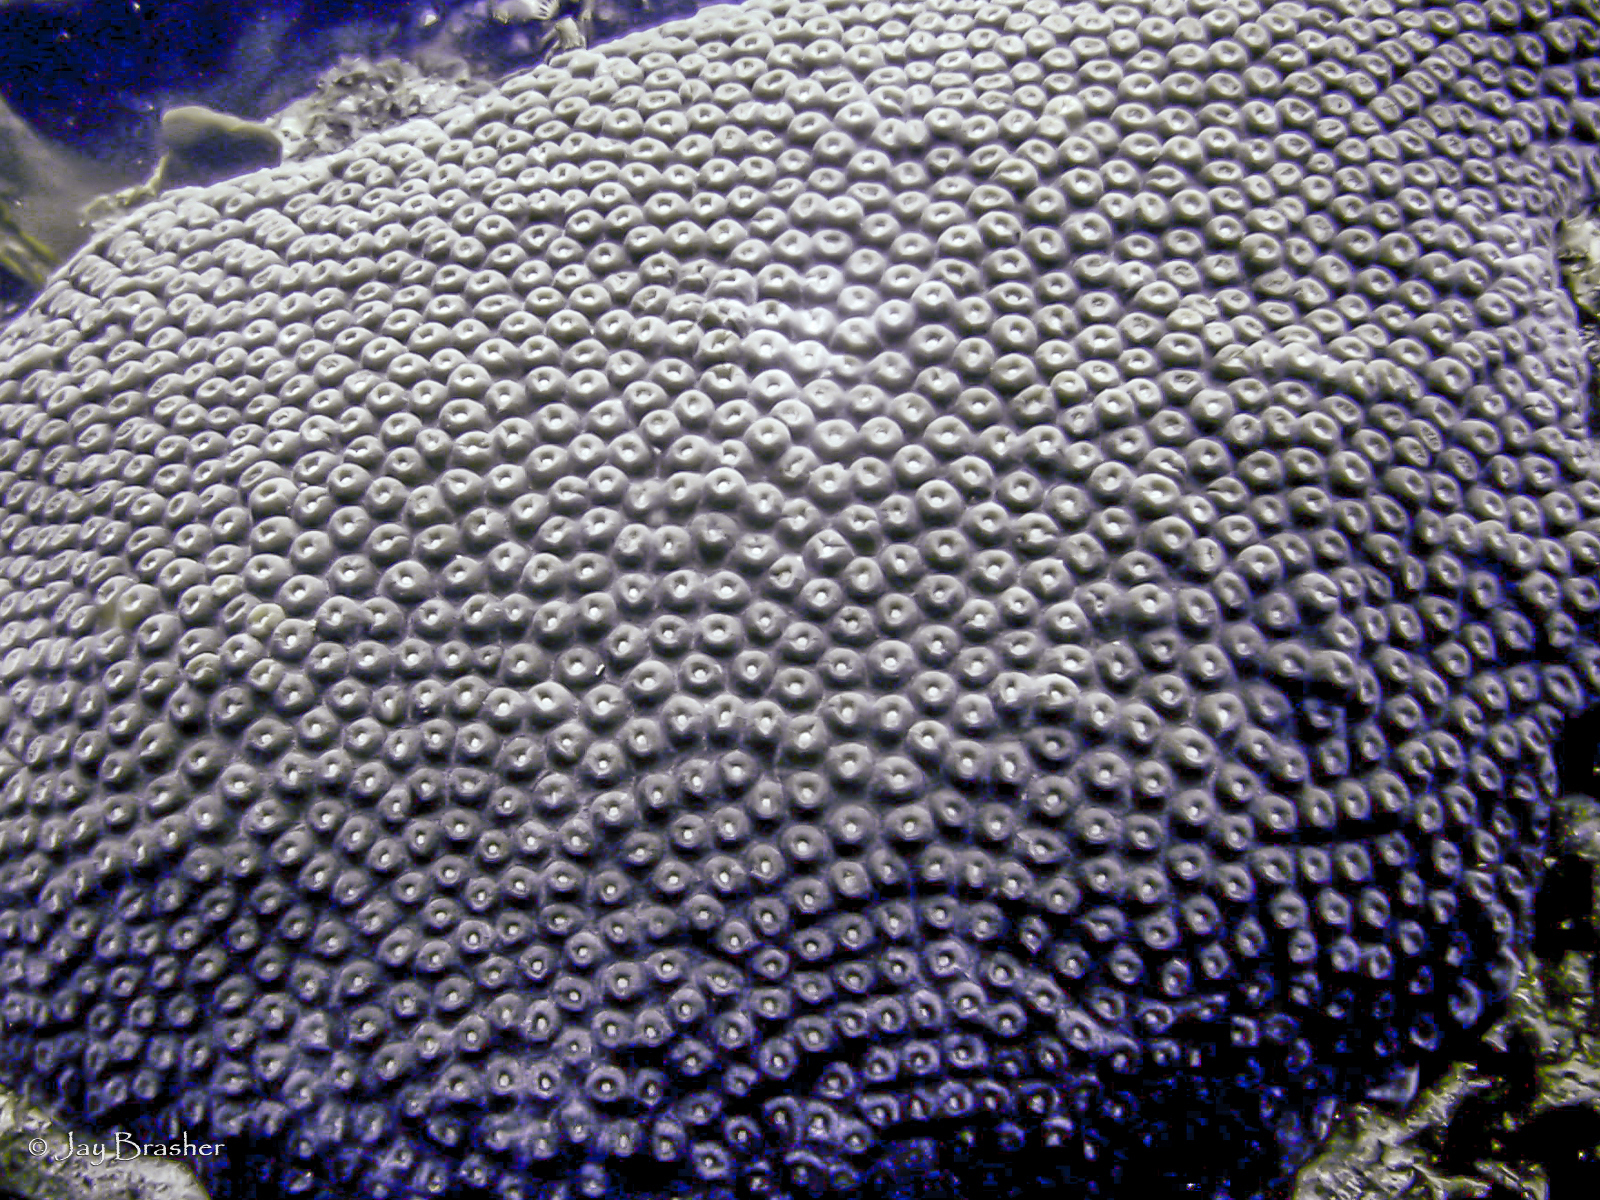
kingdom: Animalia
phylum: Cnidaria
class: Anthozoa
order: Scleractinia
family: Montastraeidae
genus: Montastraea
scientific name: Montastraea cavernosa
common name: Great star coral
